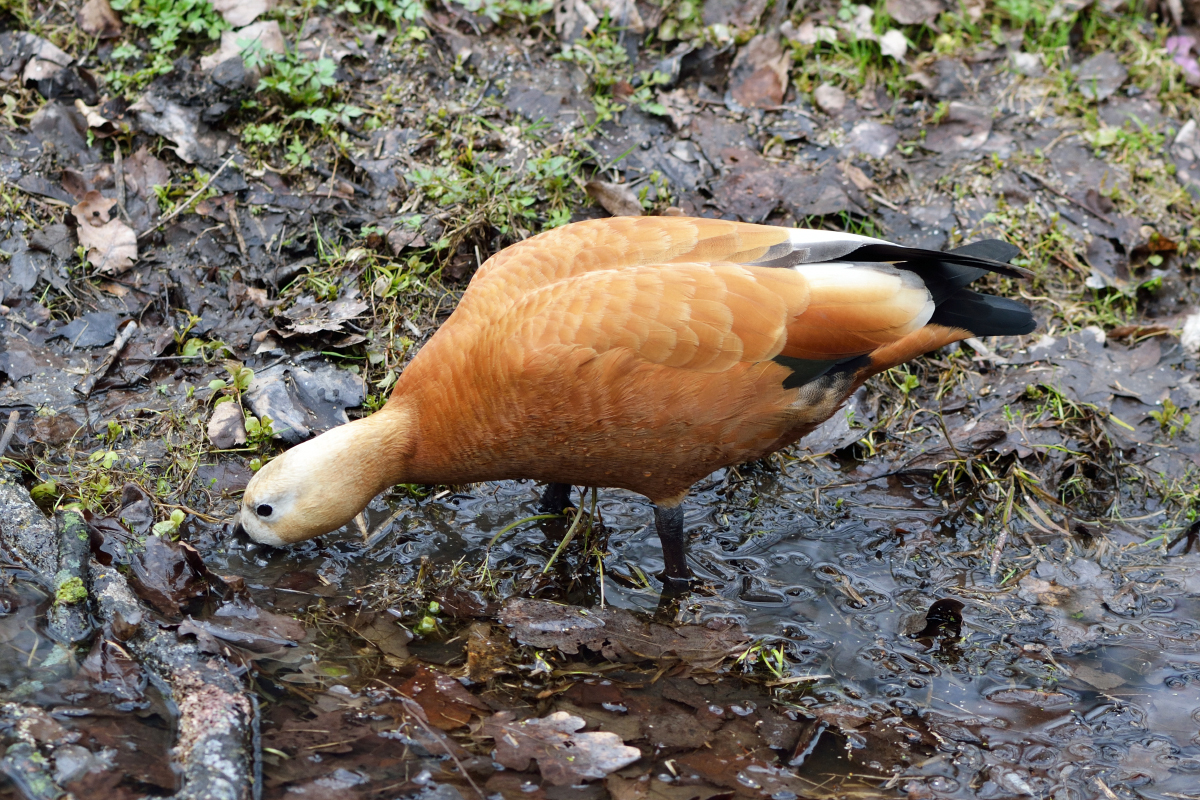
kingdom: Animalia
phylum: Chordata
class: Aves
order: Anseriformes
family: Anatidae
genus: Tadorna
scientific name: Tadorna ferruginea
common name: Ruddy shelduck
